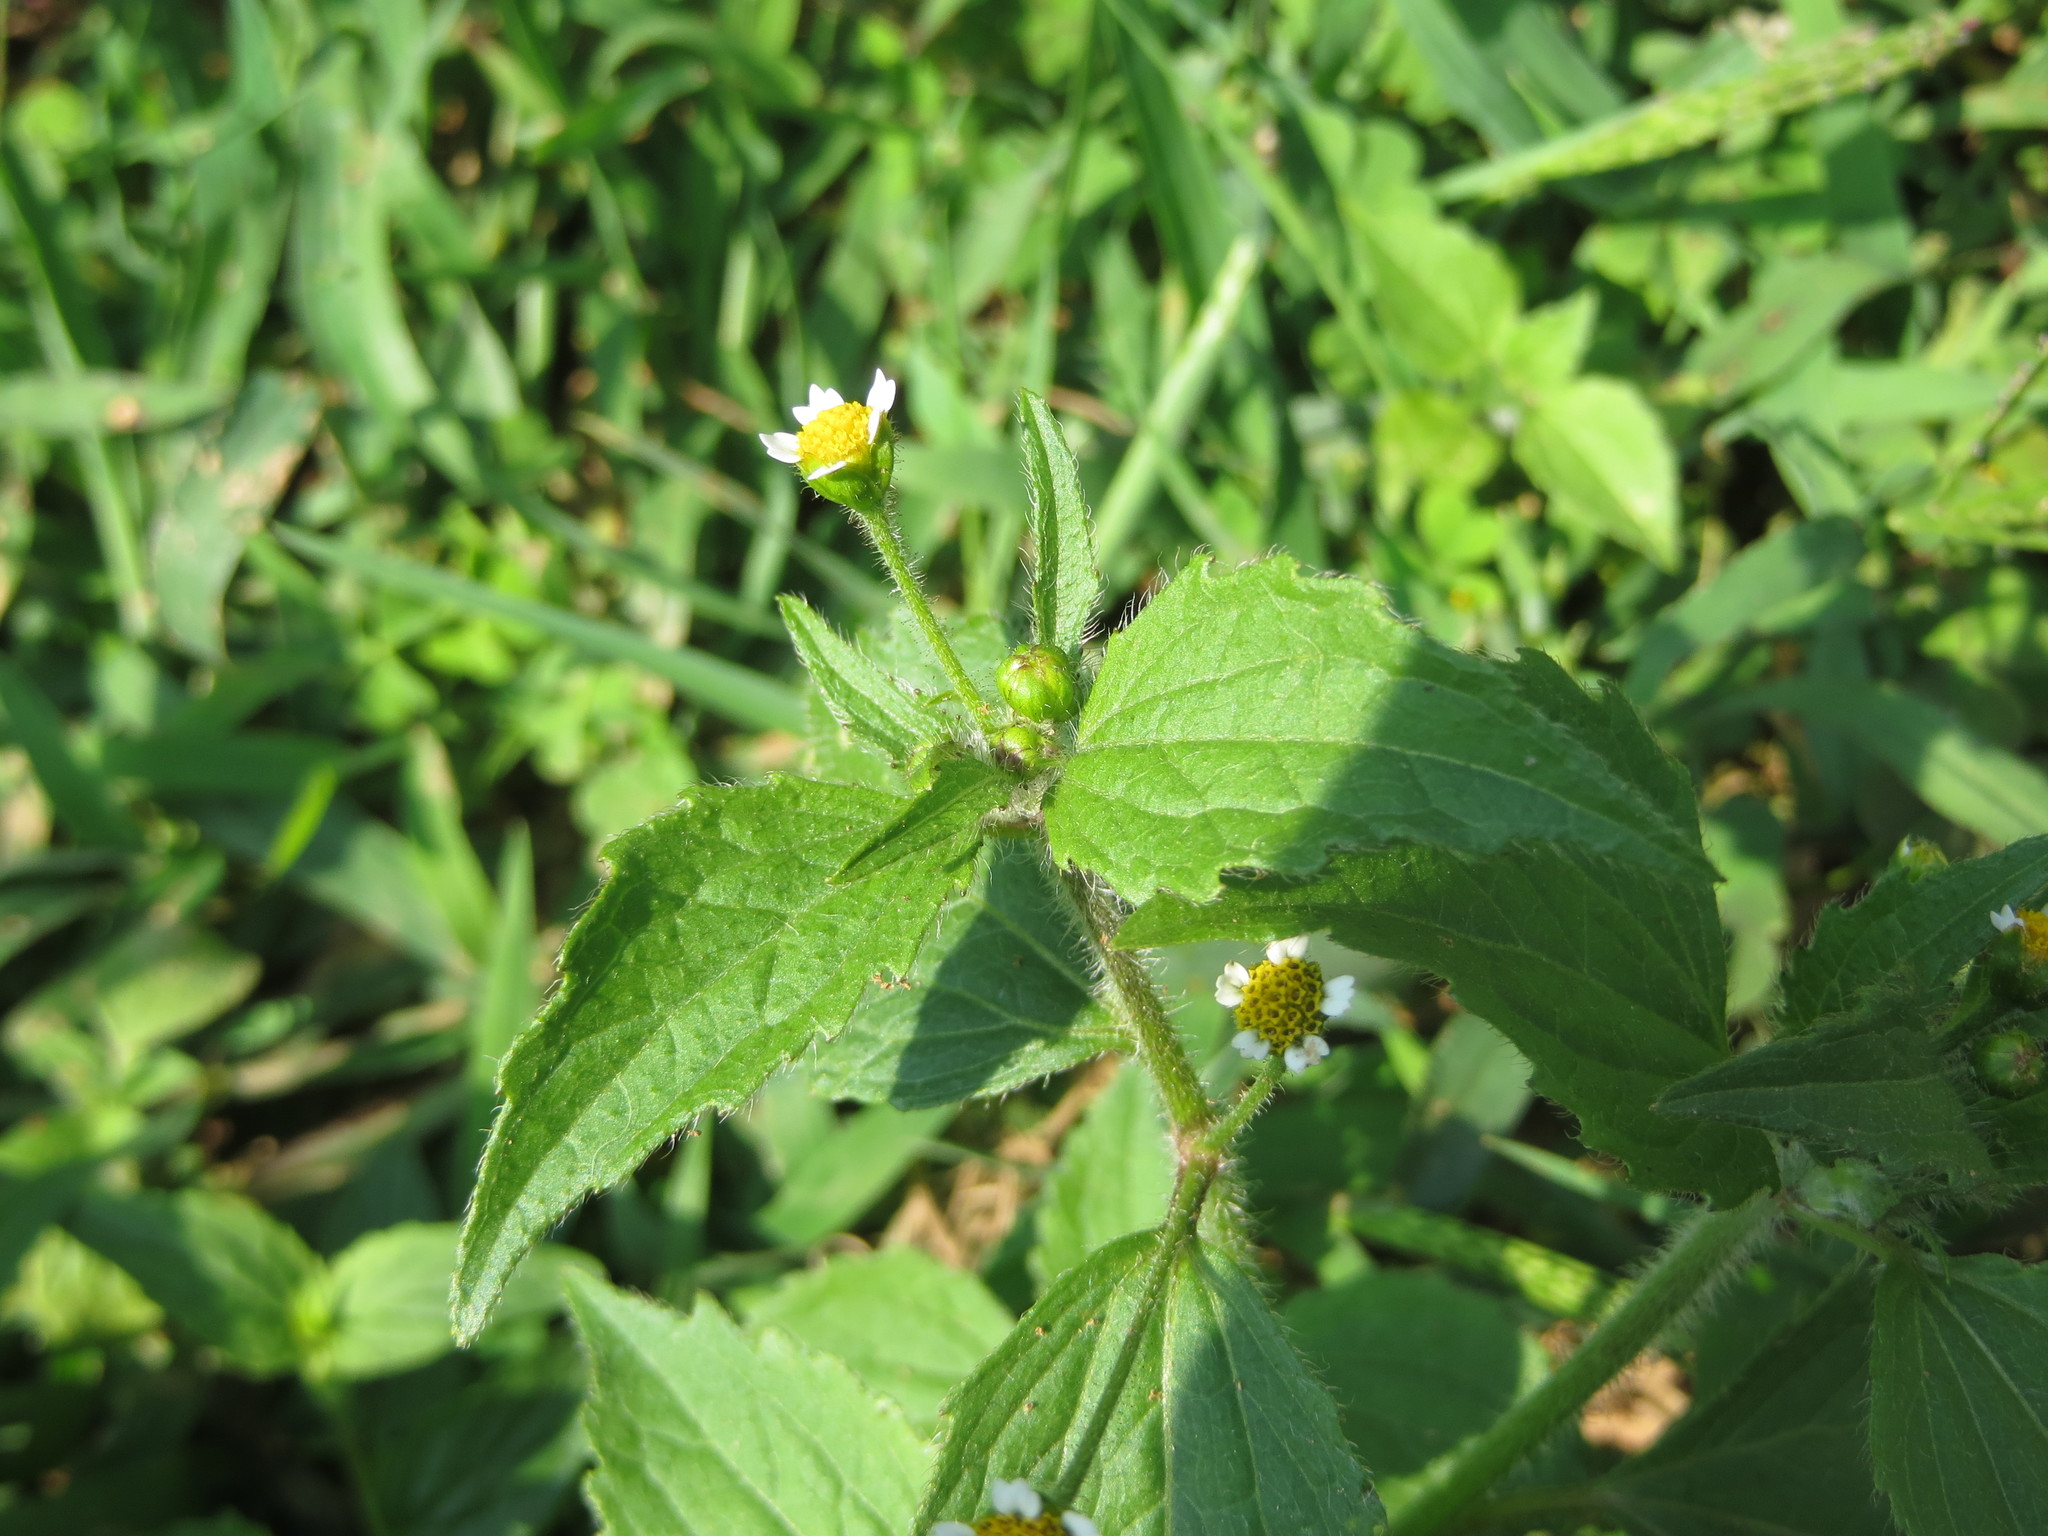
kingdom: Plantae
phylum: Tracheophyta
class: Magnoliopsida
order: Asterales
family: Asteraceae
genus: Galinsoga
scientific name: Galinsoga quadriradiata
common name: Shaggy soldier
